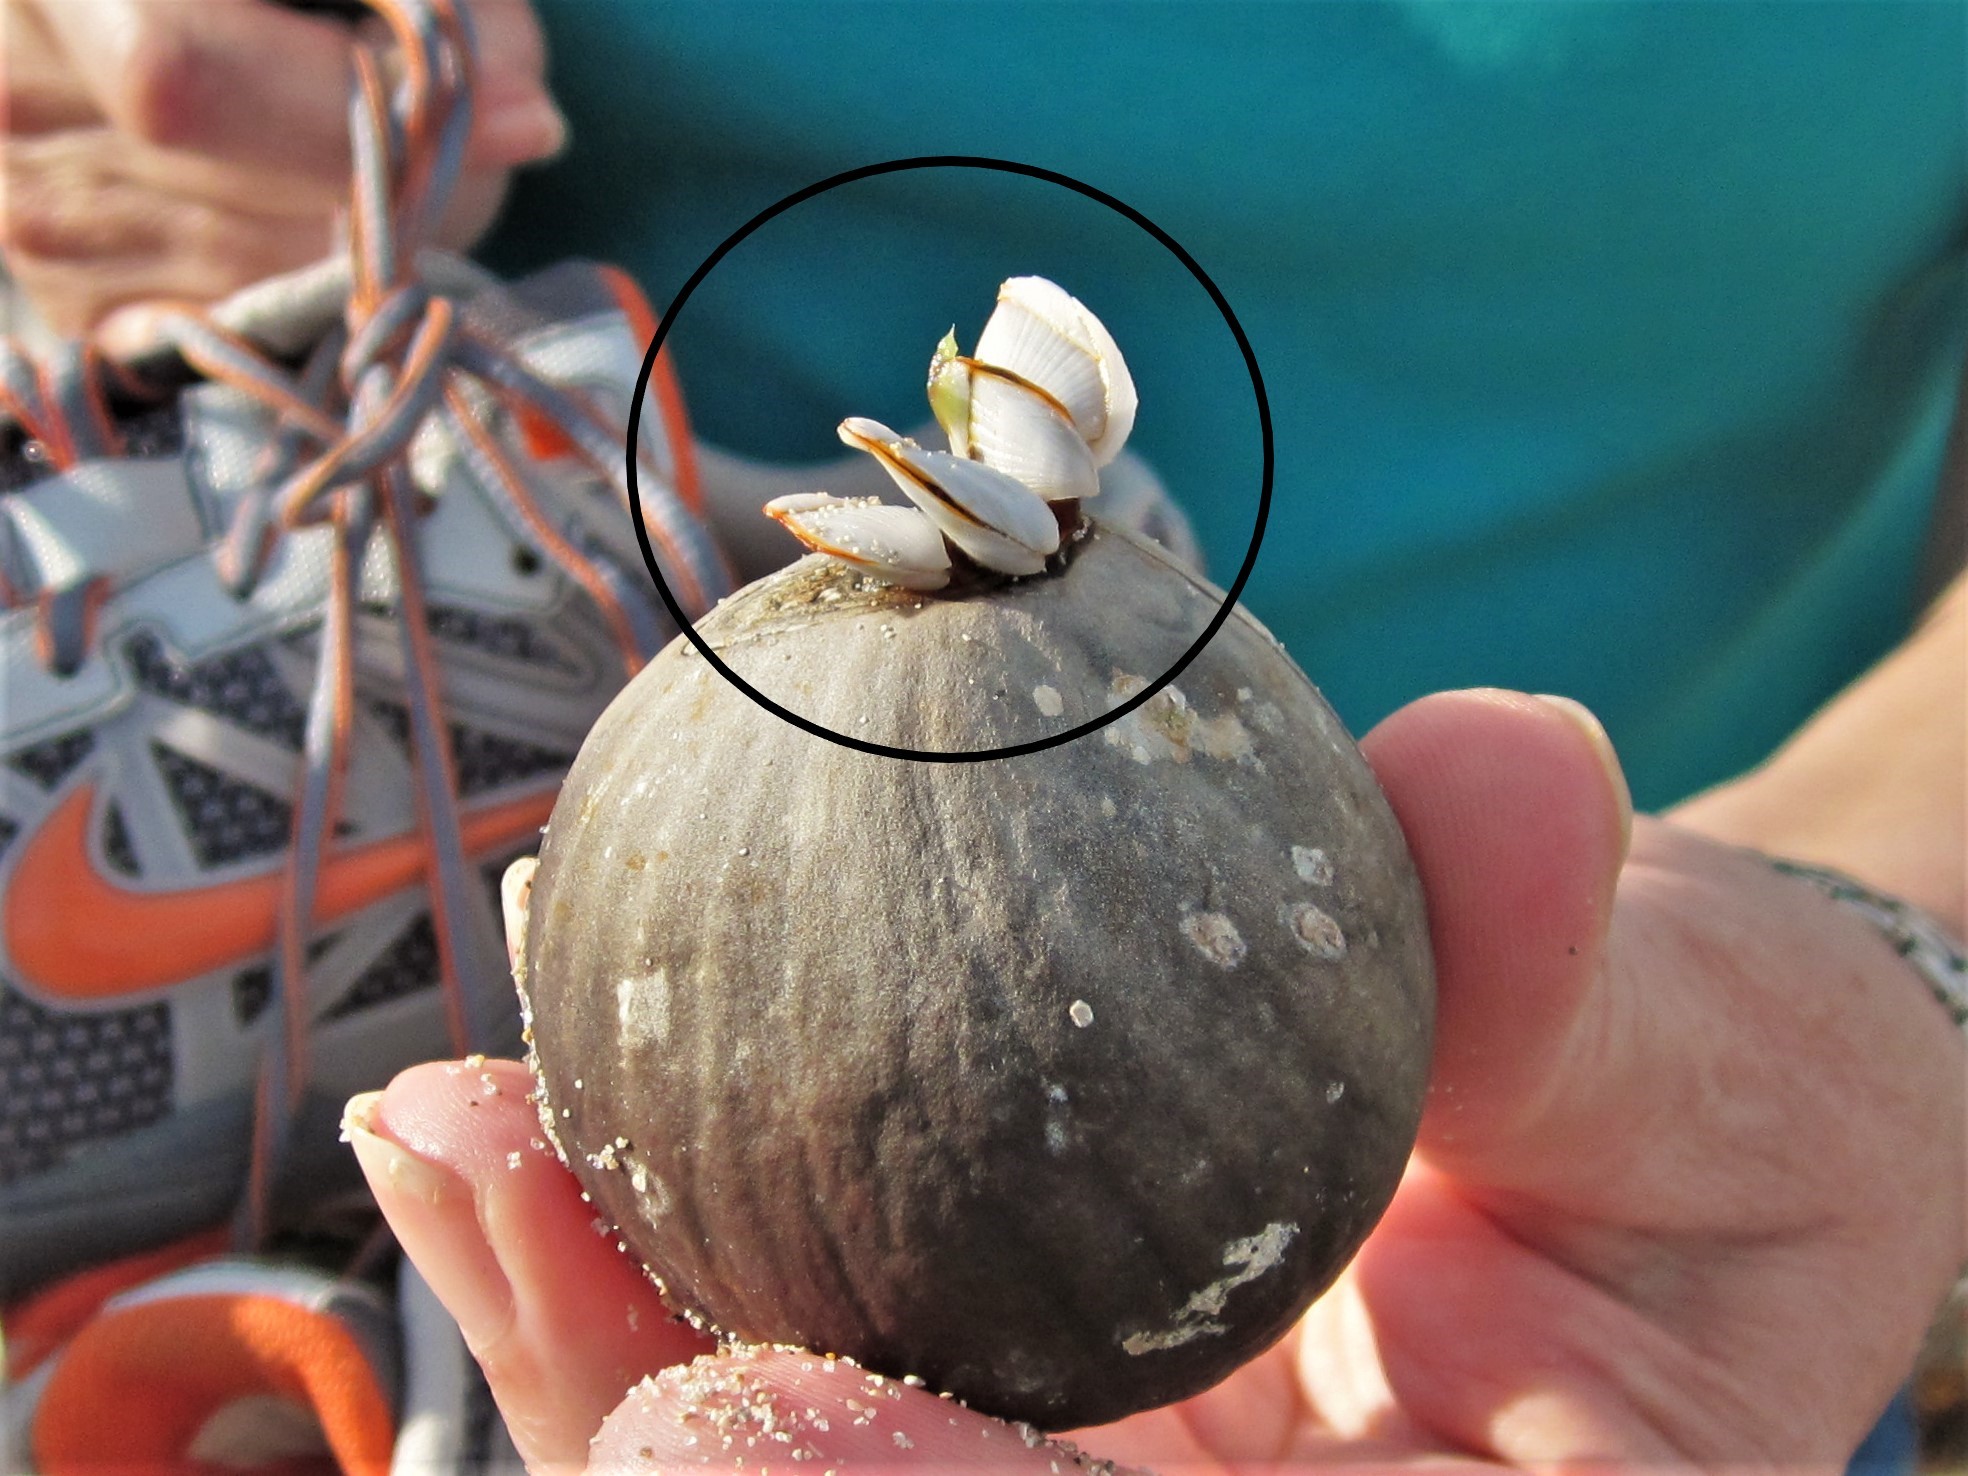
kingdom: Animalia
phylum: Arthropoda
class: Maxillopoda
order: Pedunculata
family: Lepadidae
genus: Lepas
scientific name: Lepas anserifera
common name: Goose barnacle
